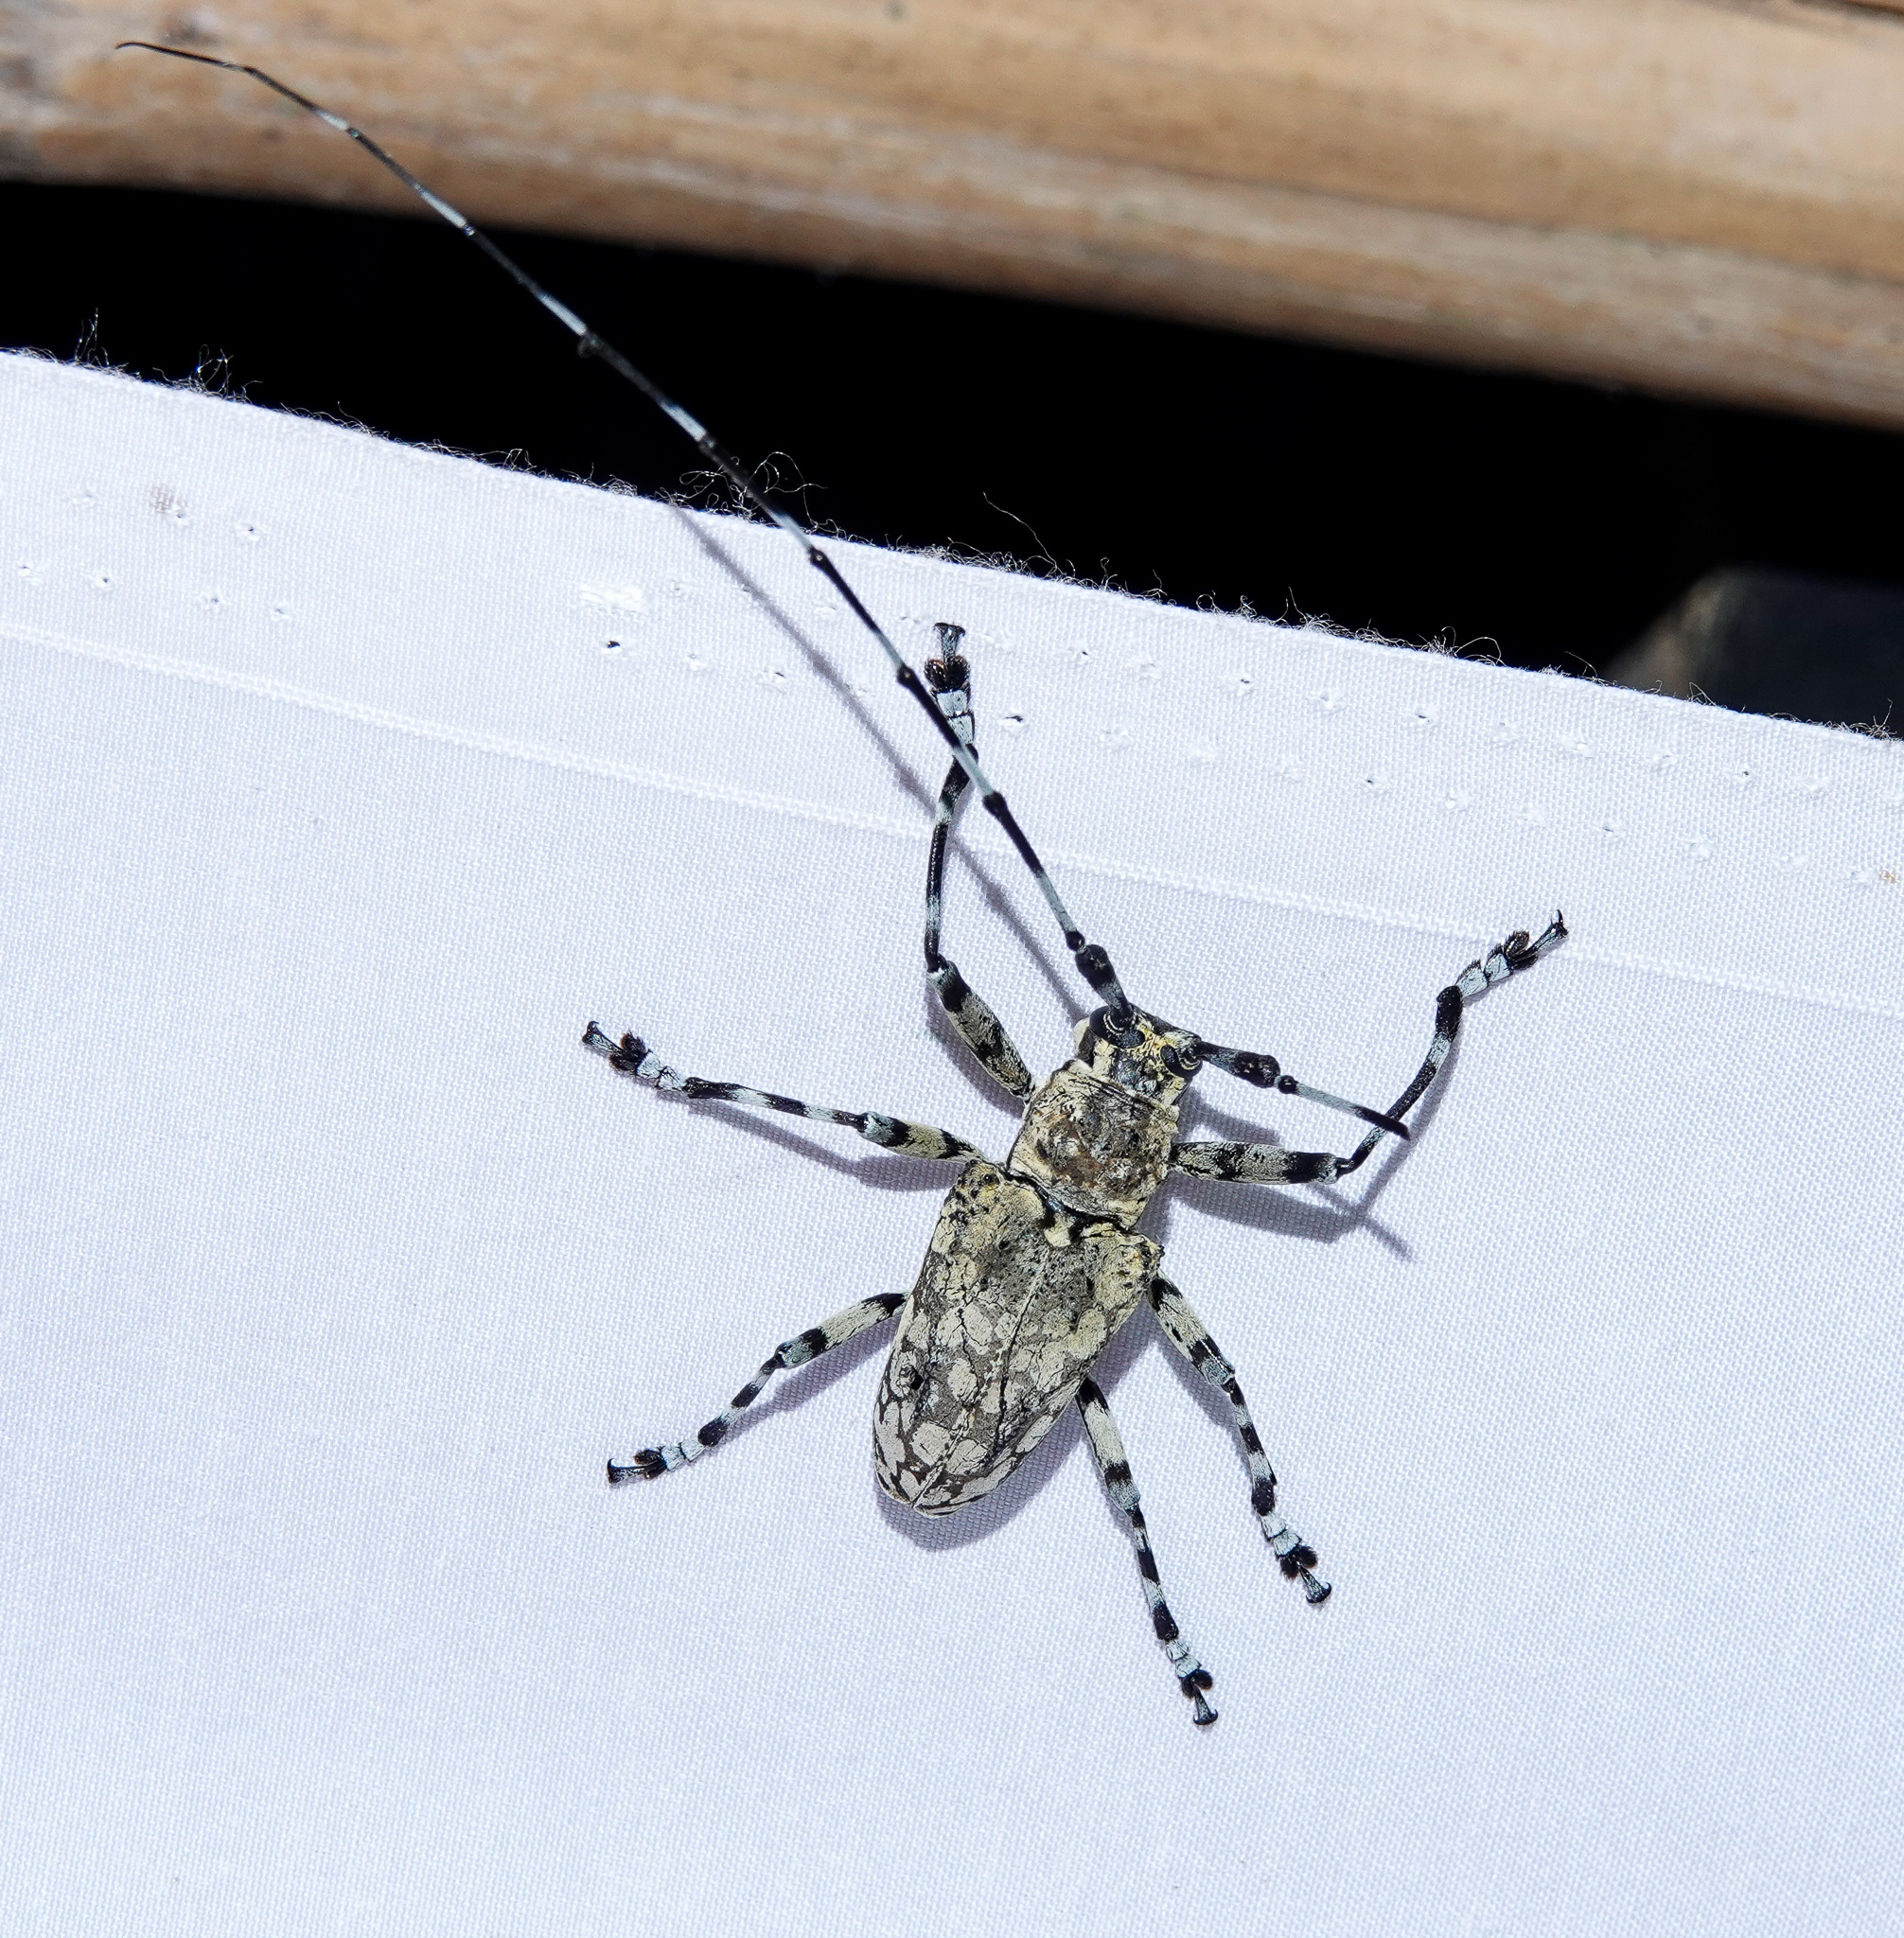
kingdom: Animalia
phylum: Arthropoda
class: Insecta
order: Coleoptera
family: Cerambycidae
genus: Palimna
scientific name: Palimna annulata
